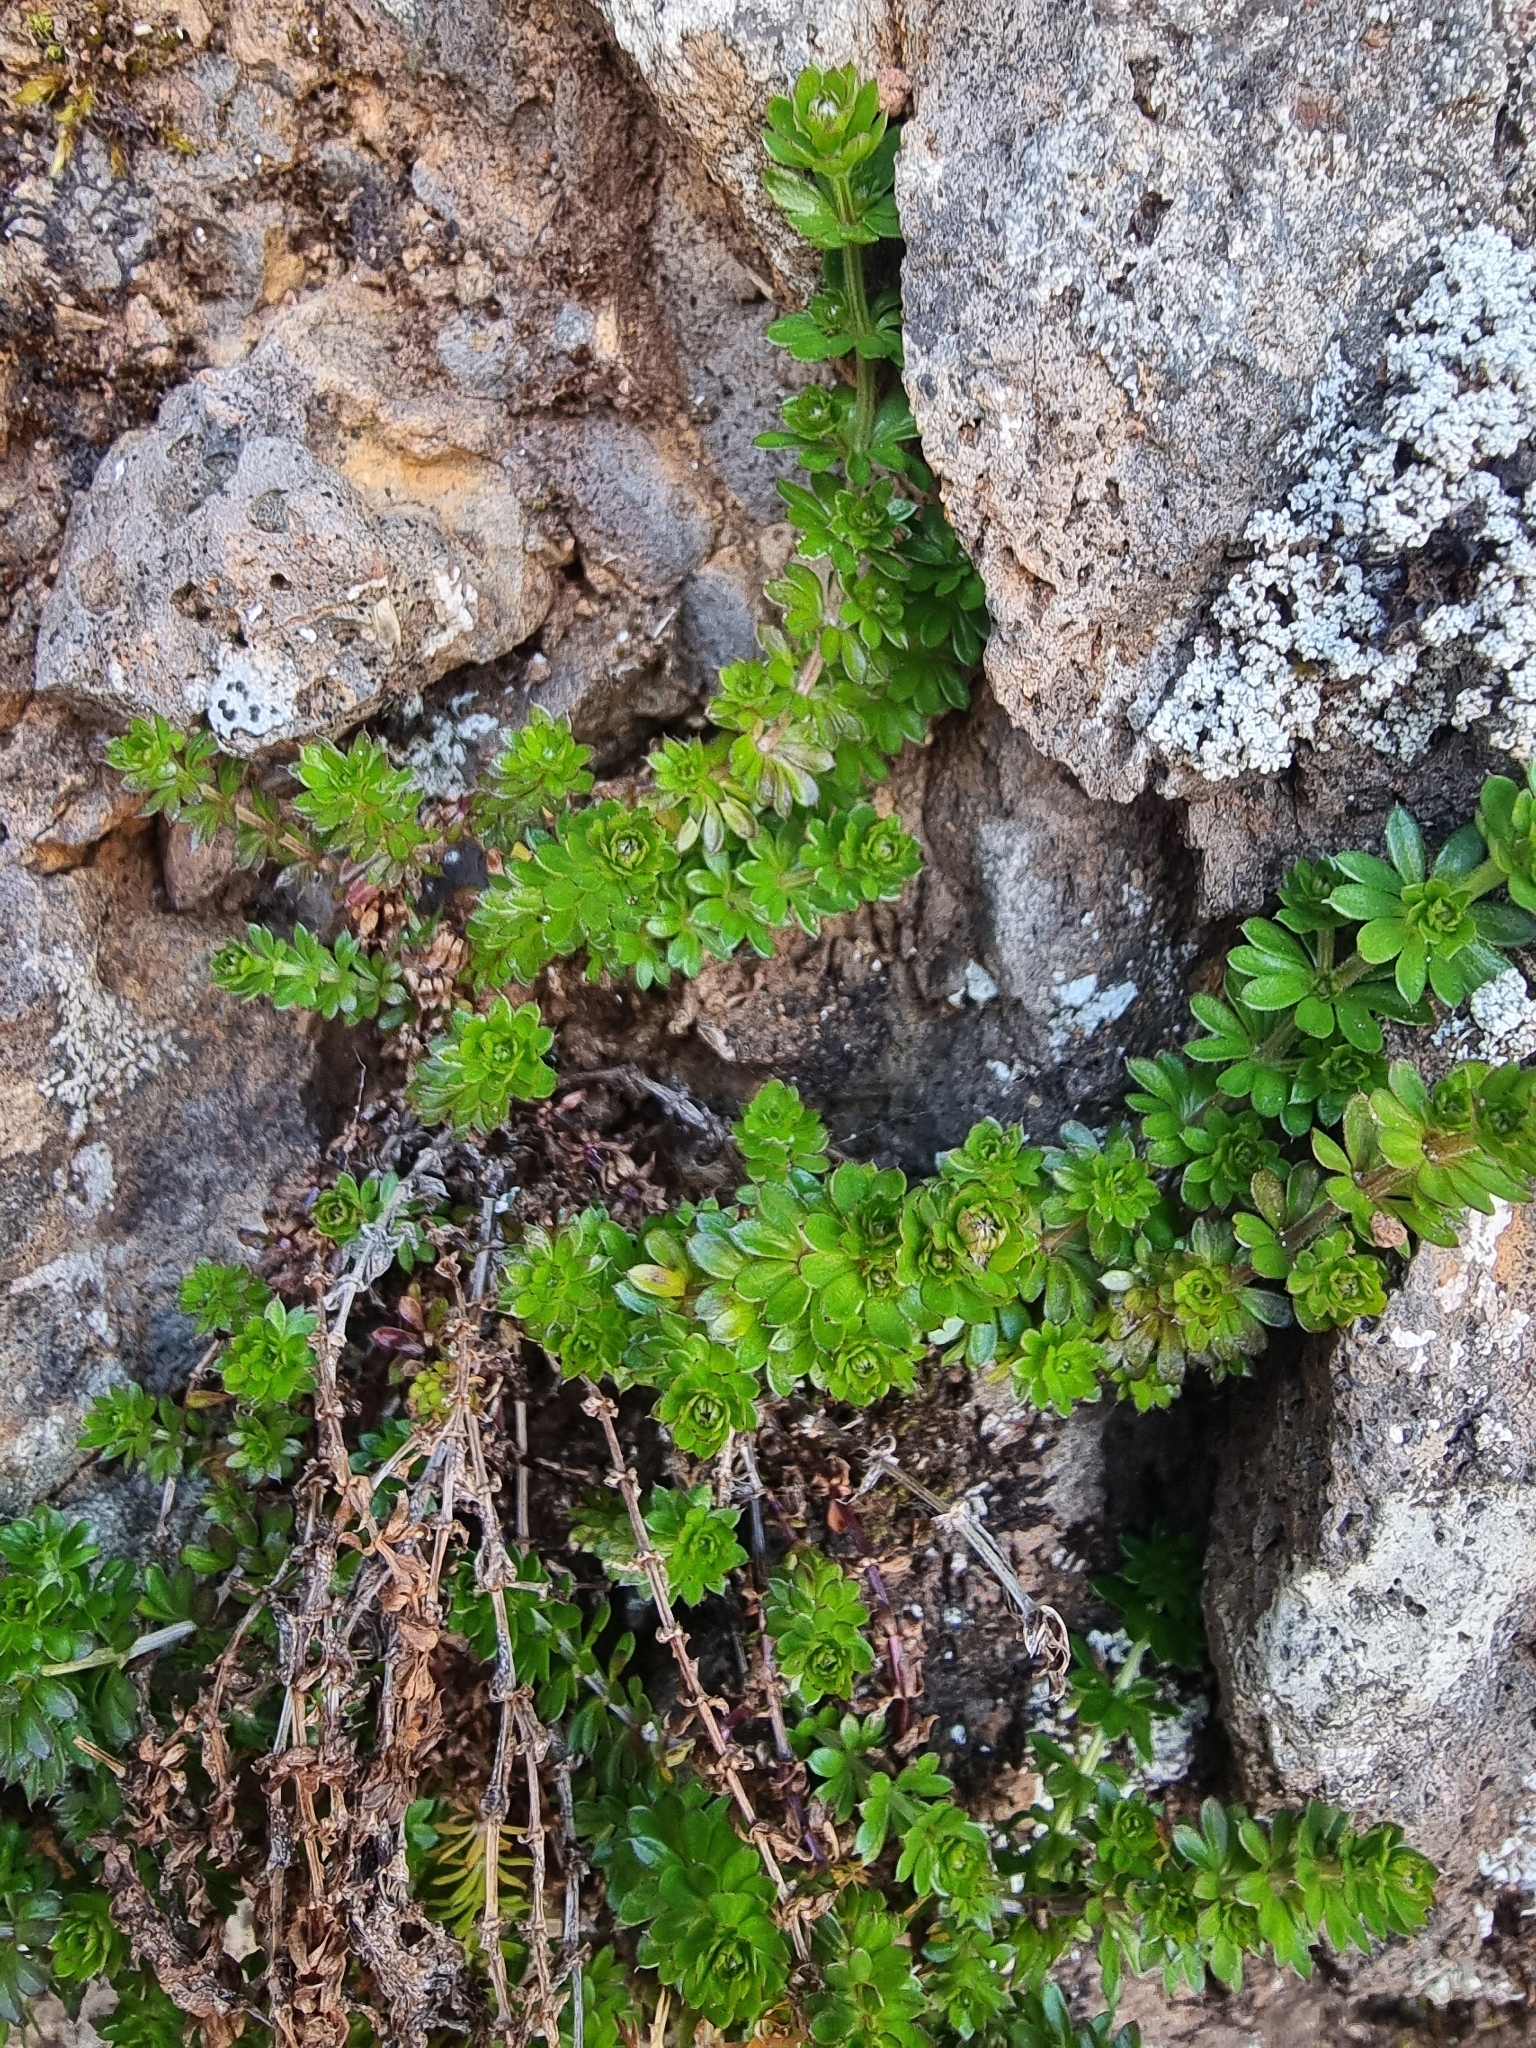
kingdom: Plantae
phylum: Tracheophyta
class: Magnoliopsida
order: Gentianales
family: Rubiaceae
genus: Galium
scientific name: Galium productum
